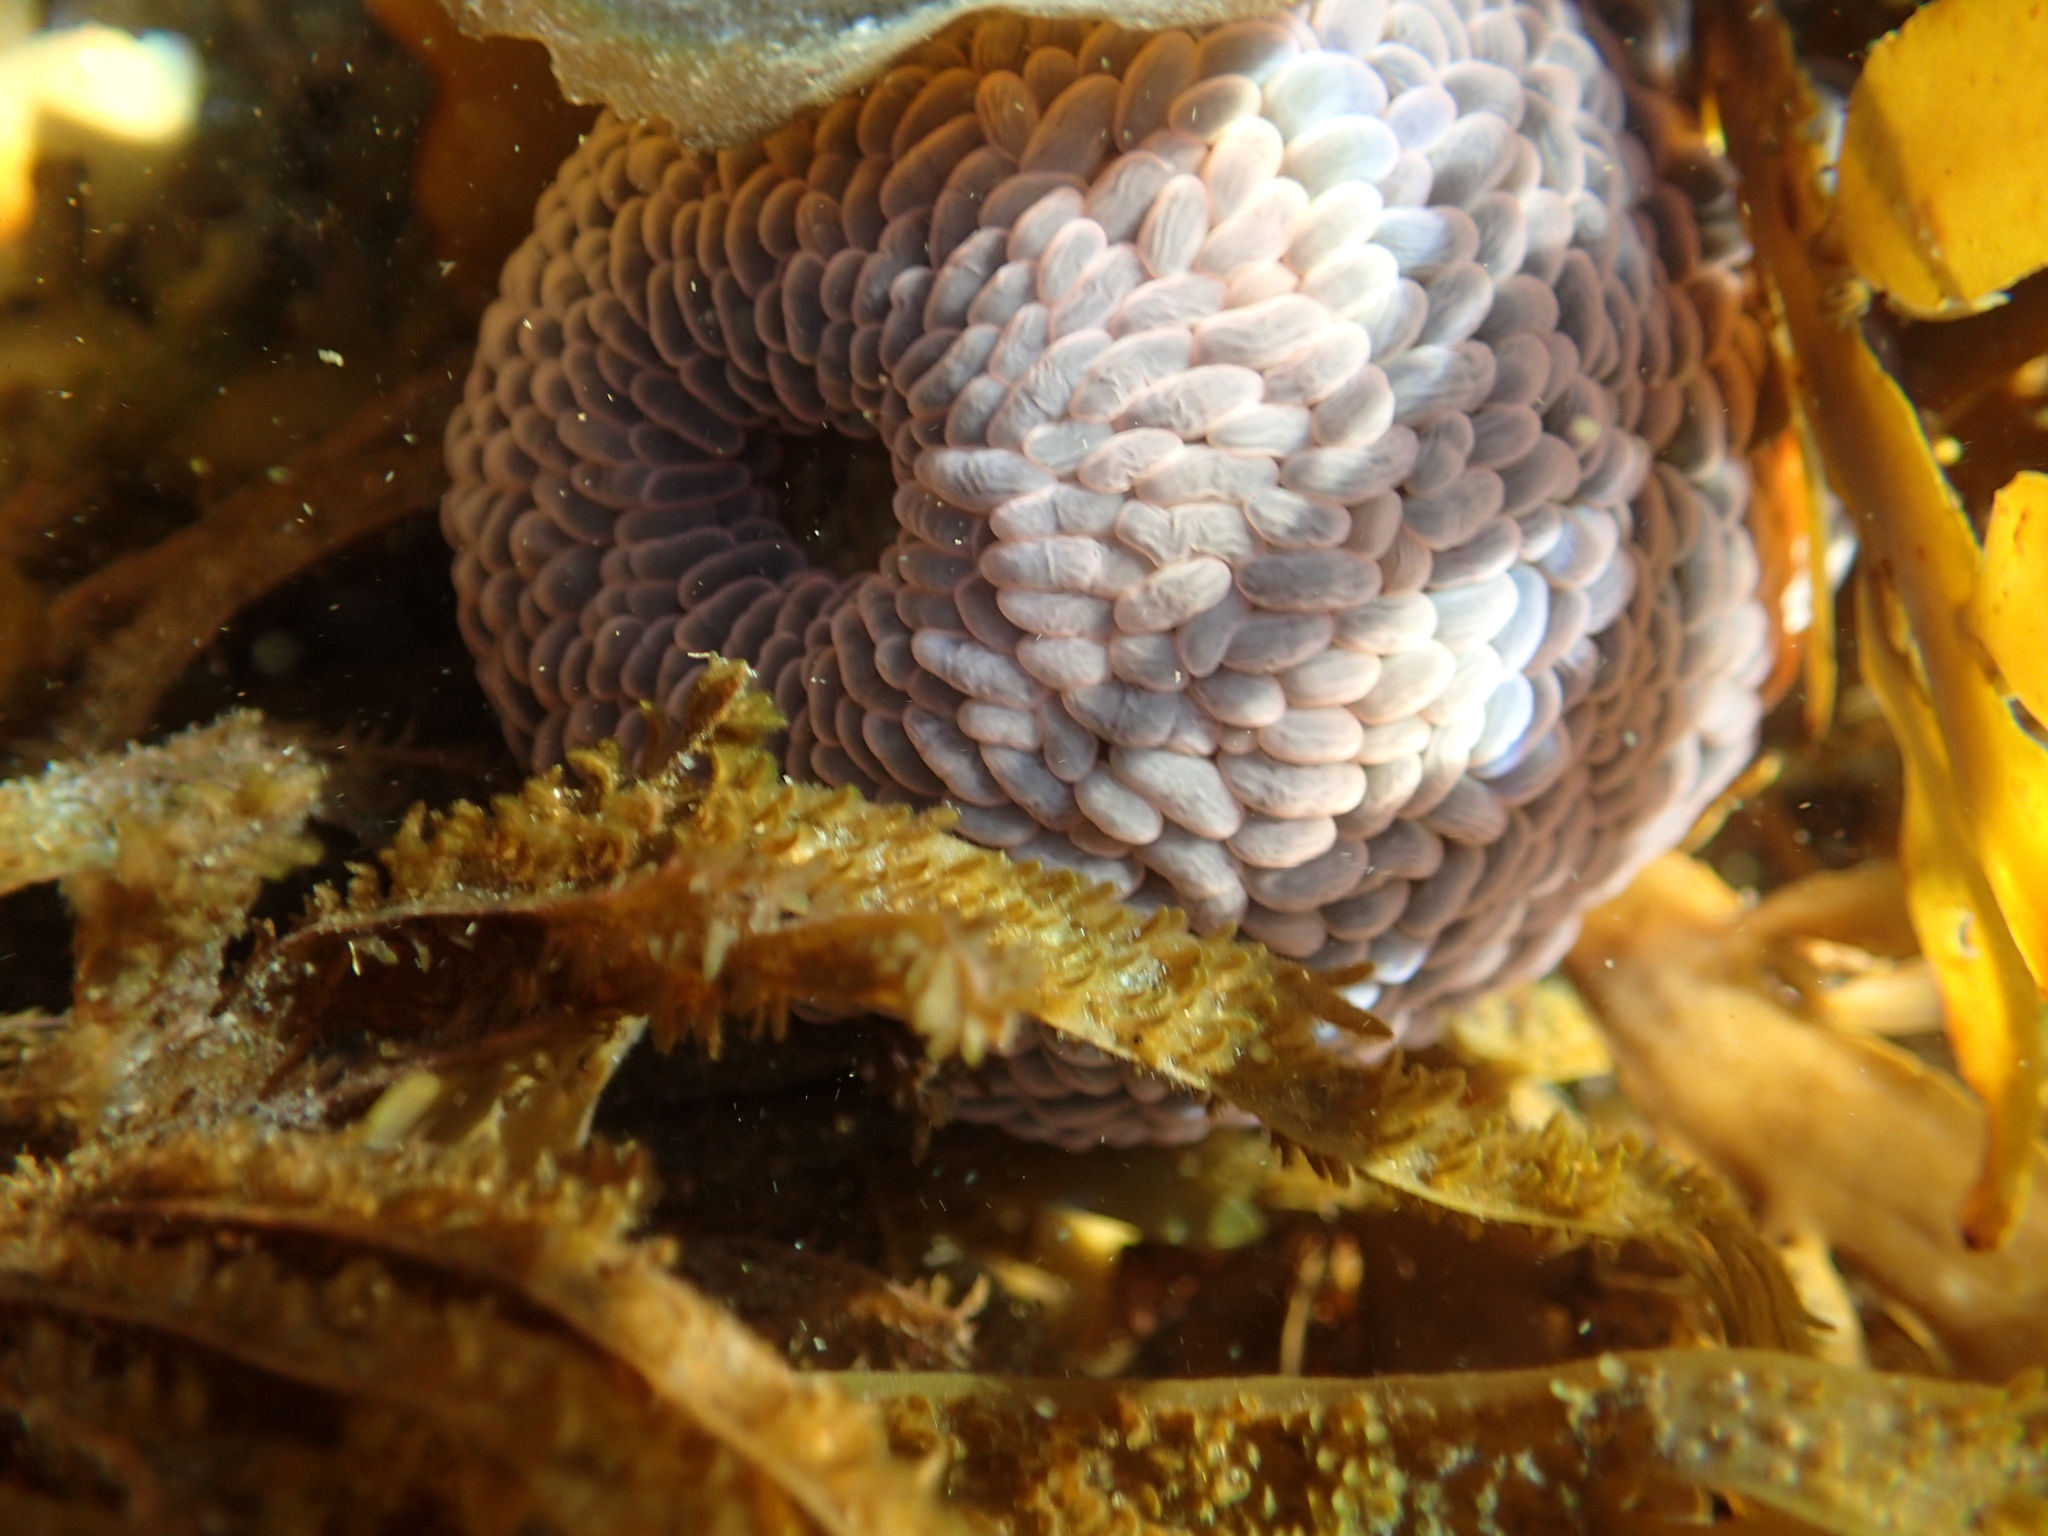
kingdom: Animalia
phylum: Cnidaria
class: Anthozoa
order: Actiniaria
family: Actiniidae
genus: Phlyctenactis
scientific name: Phlyctenactis tuberculosa
